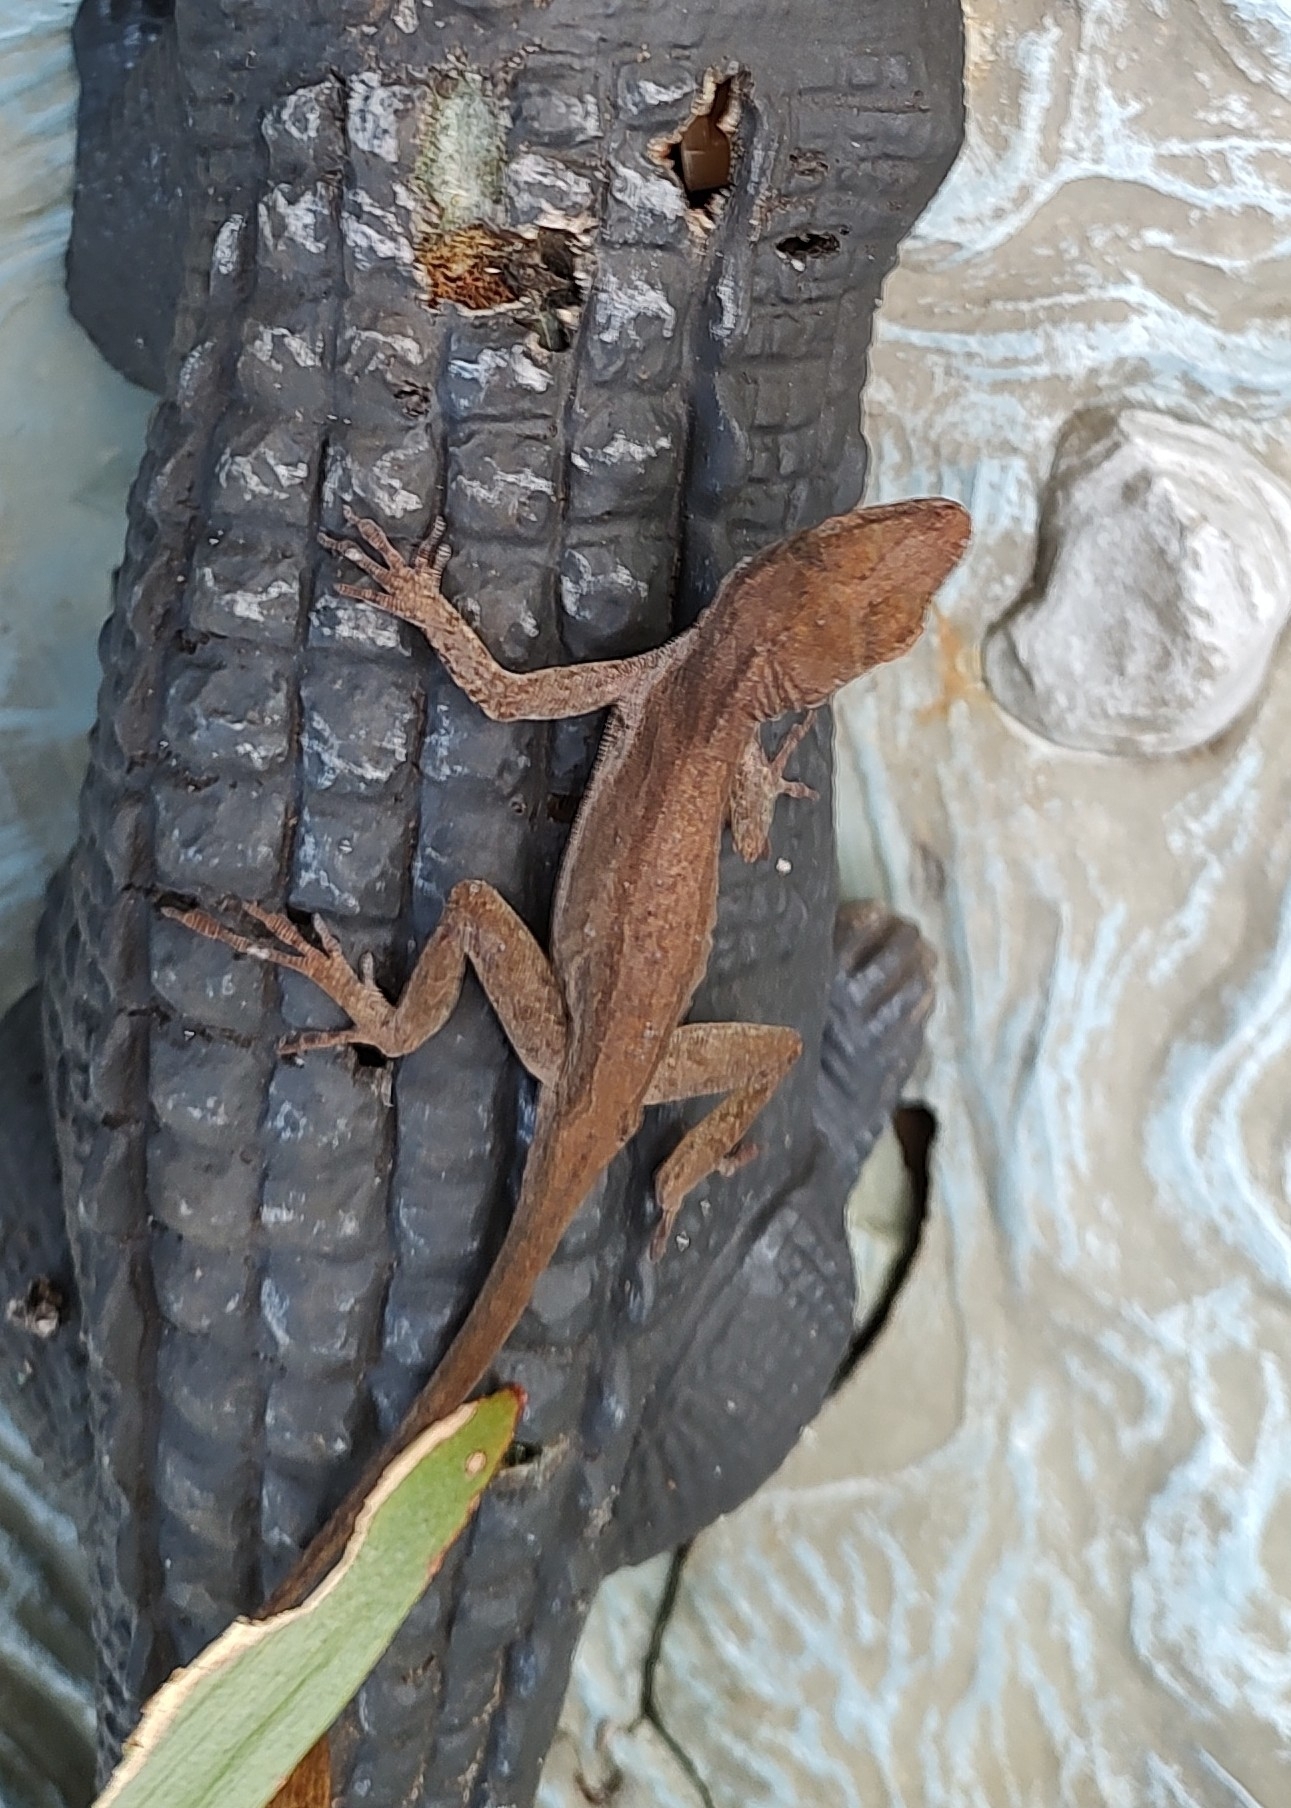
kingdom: Animalia
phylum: Chordata
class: Squamata
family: Dactyloidae
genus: Anolis
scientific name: Anolis cristatellus
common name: Crested anole
